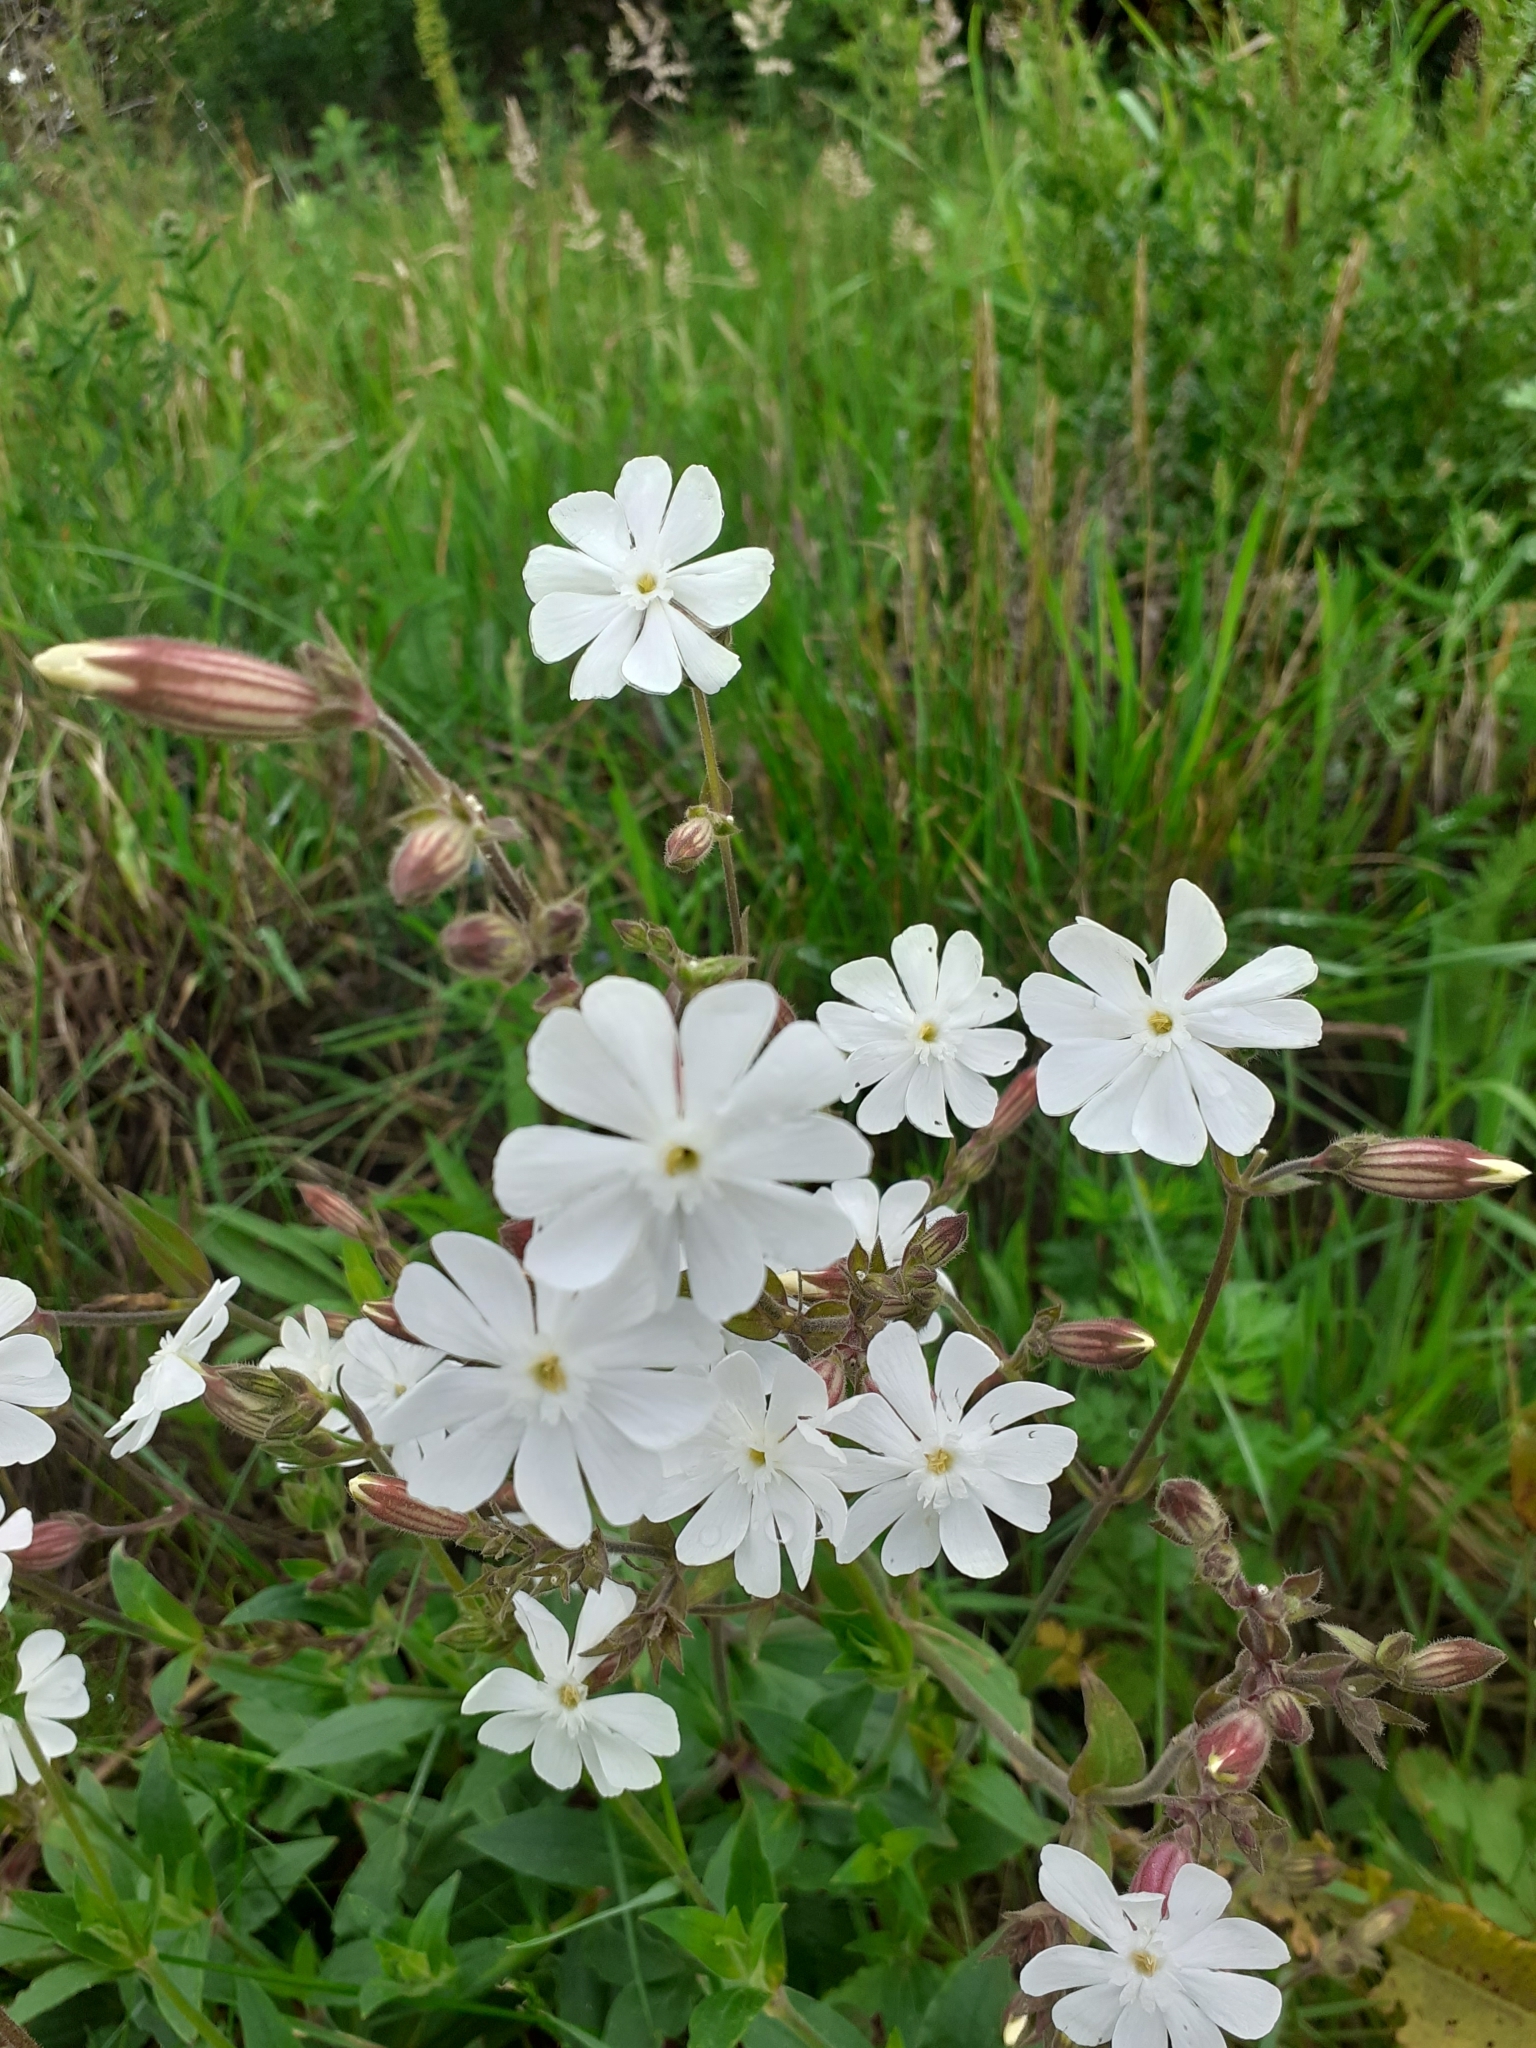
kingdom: Plantae
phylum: Tracheophyta
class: Magnoliopsida
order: Caryophyllales
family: Caryophyllaceae
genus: Silene
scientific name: Silene latifolia
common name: White campion
